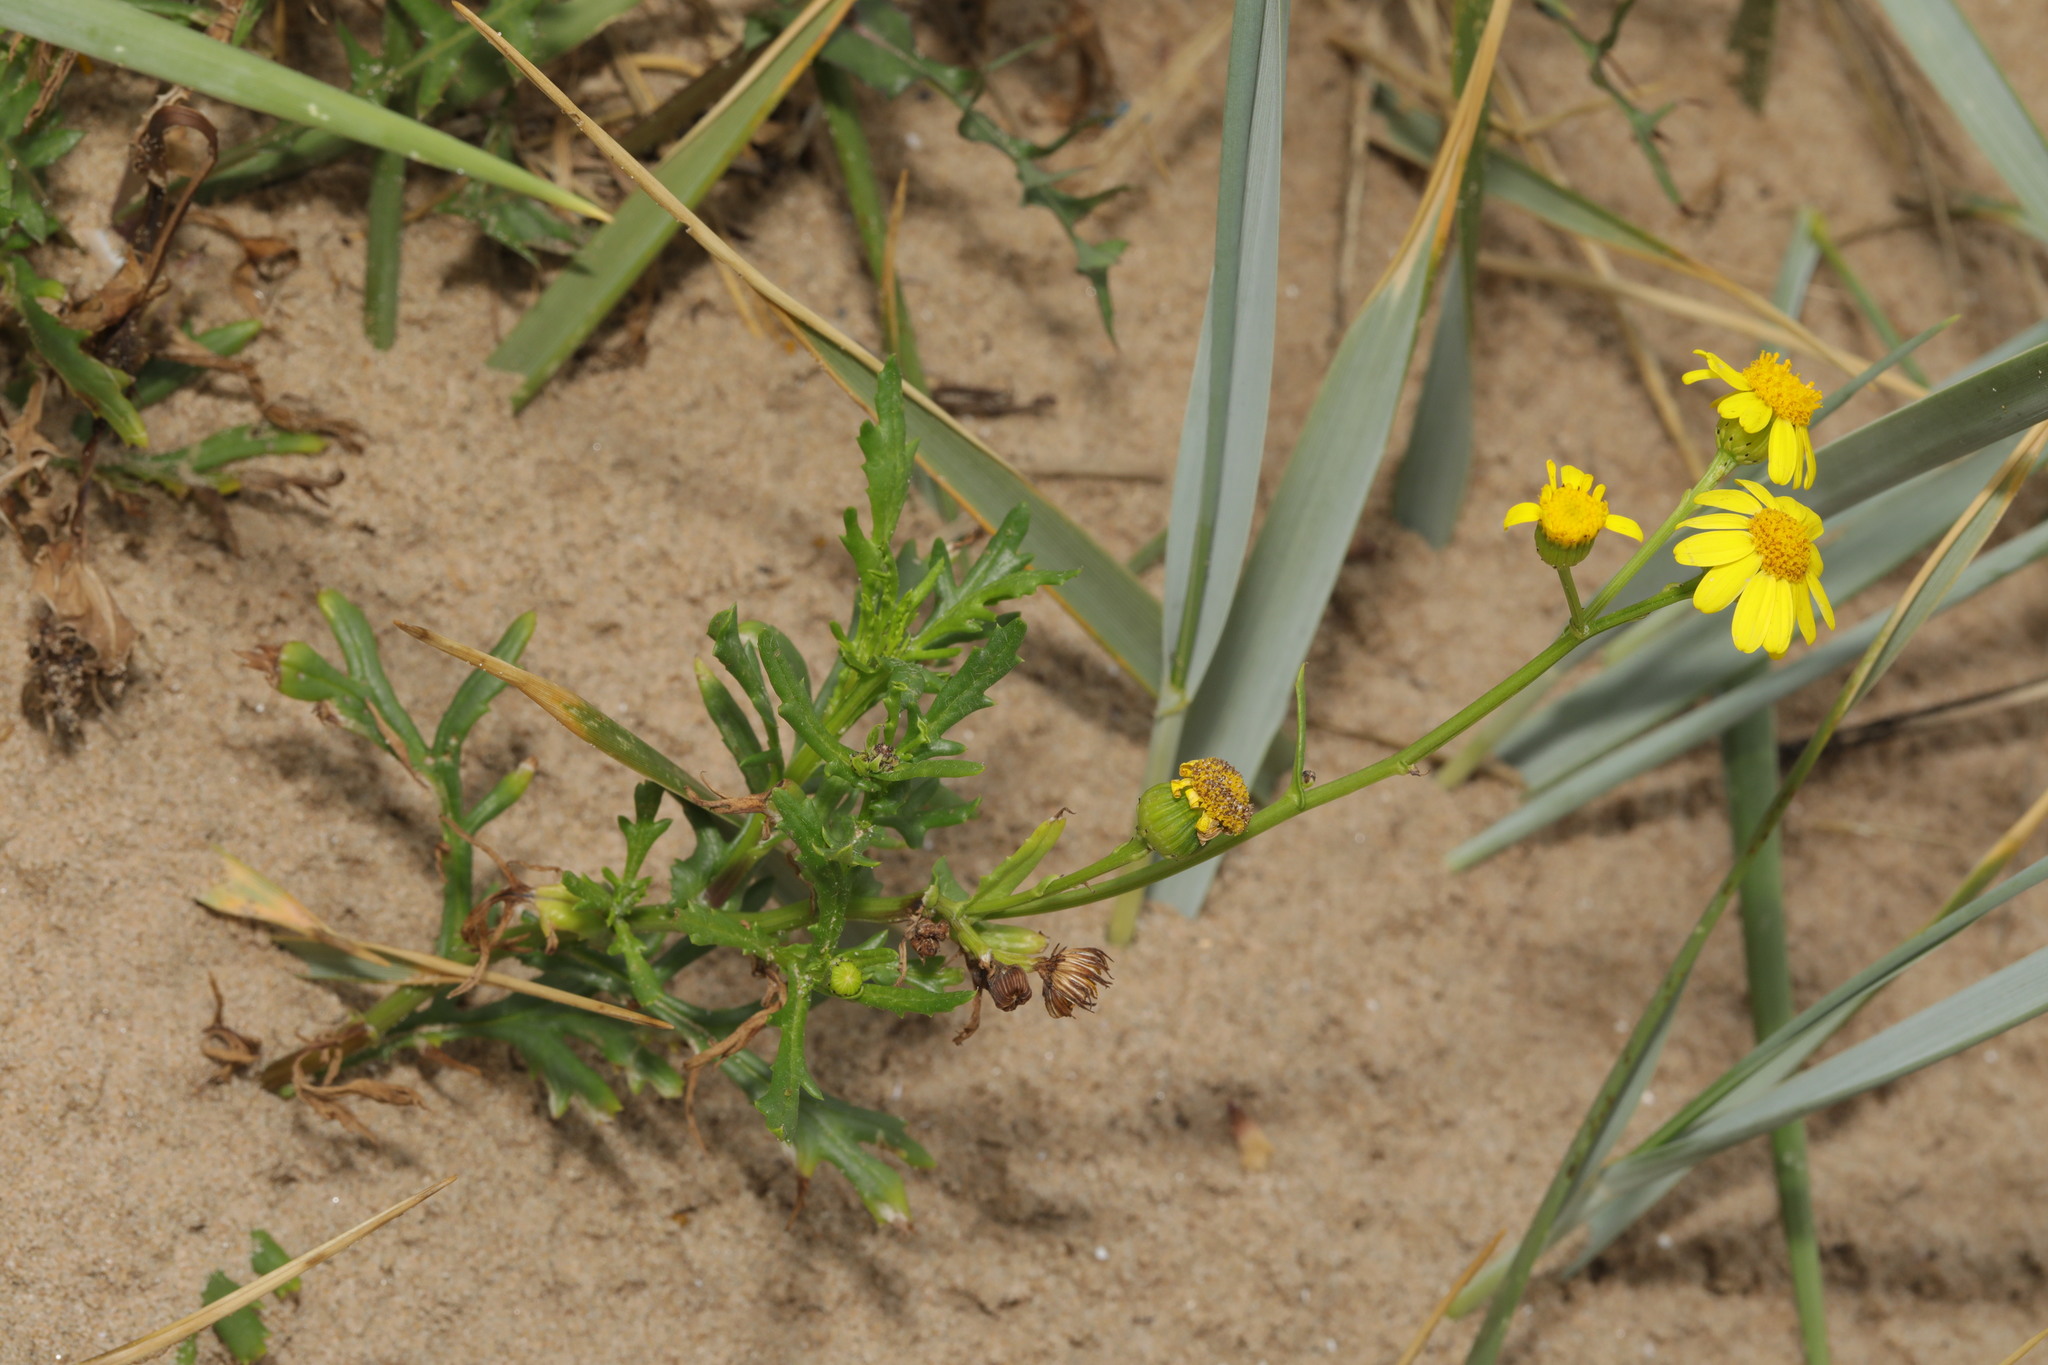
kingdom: Plantae
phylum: Tracheophyta
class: Magnoliopsida
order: Asterales
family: Asteraceae
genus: Senecio
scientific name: Senecio squalidus
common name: Oxford ragwort
